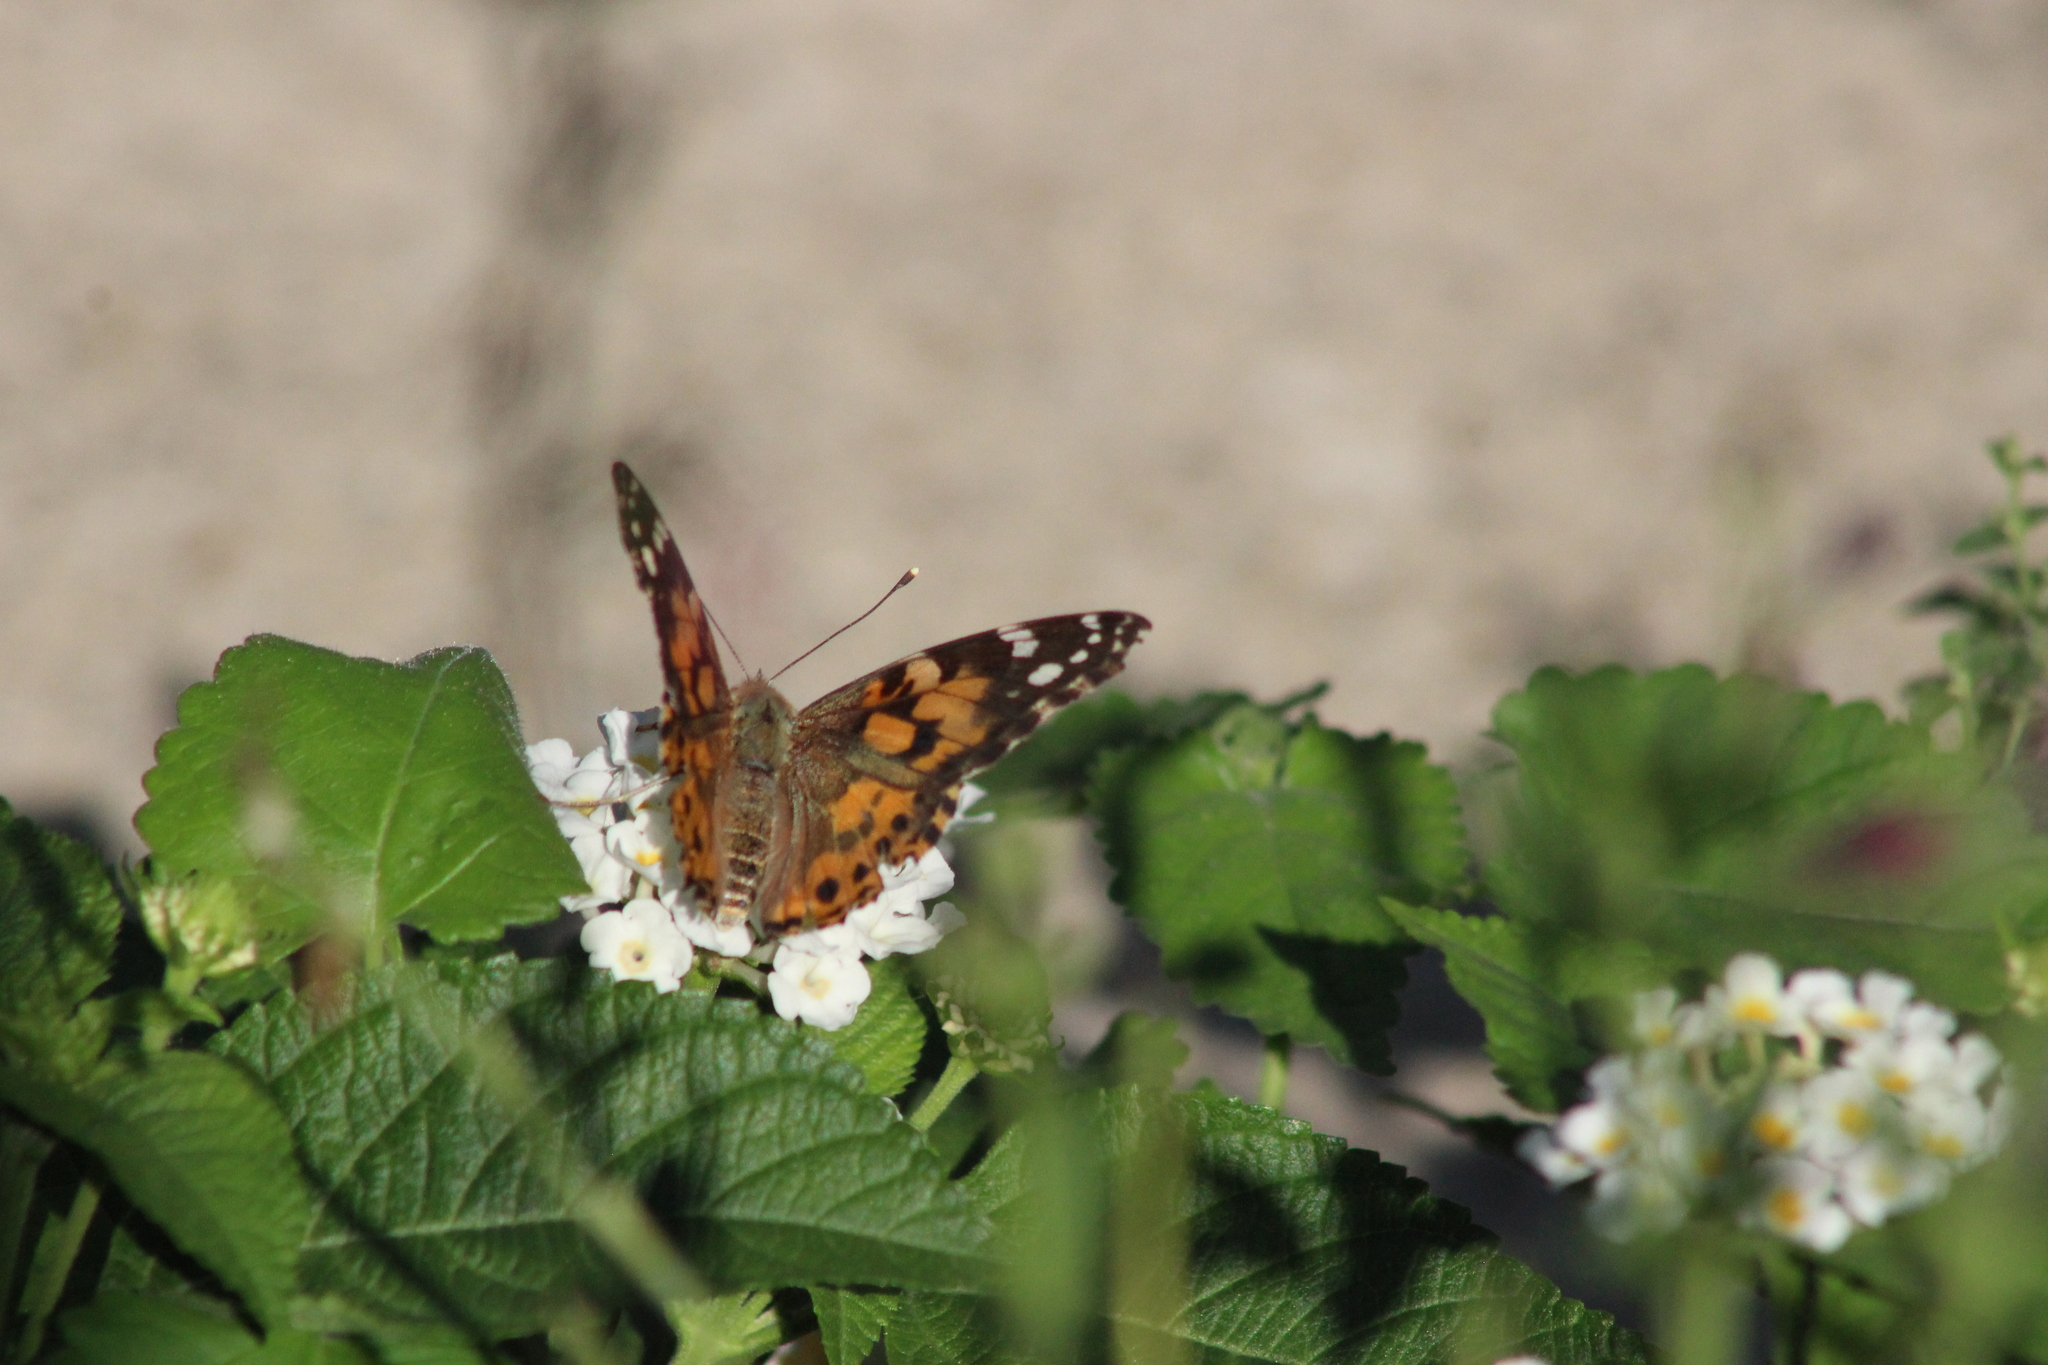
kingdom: Animalia
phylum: Arthropoda
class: Insecta
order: Lepidoptera
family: Nymphalidae
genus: Vanessa
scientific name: Vanessa cardui
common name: Painted lady
